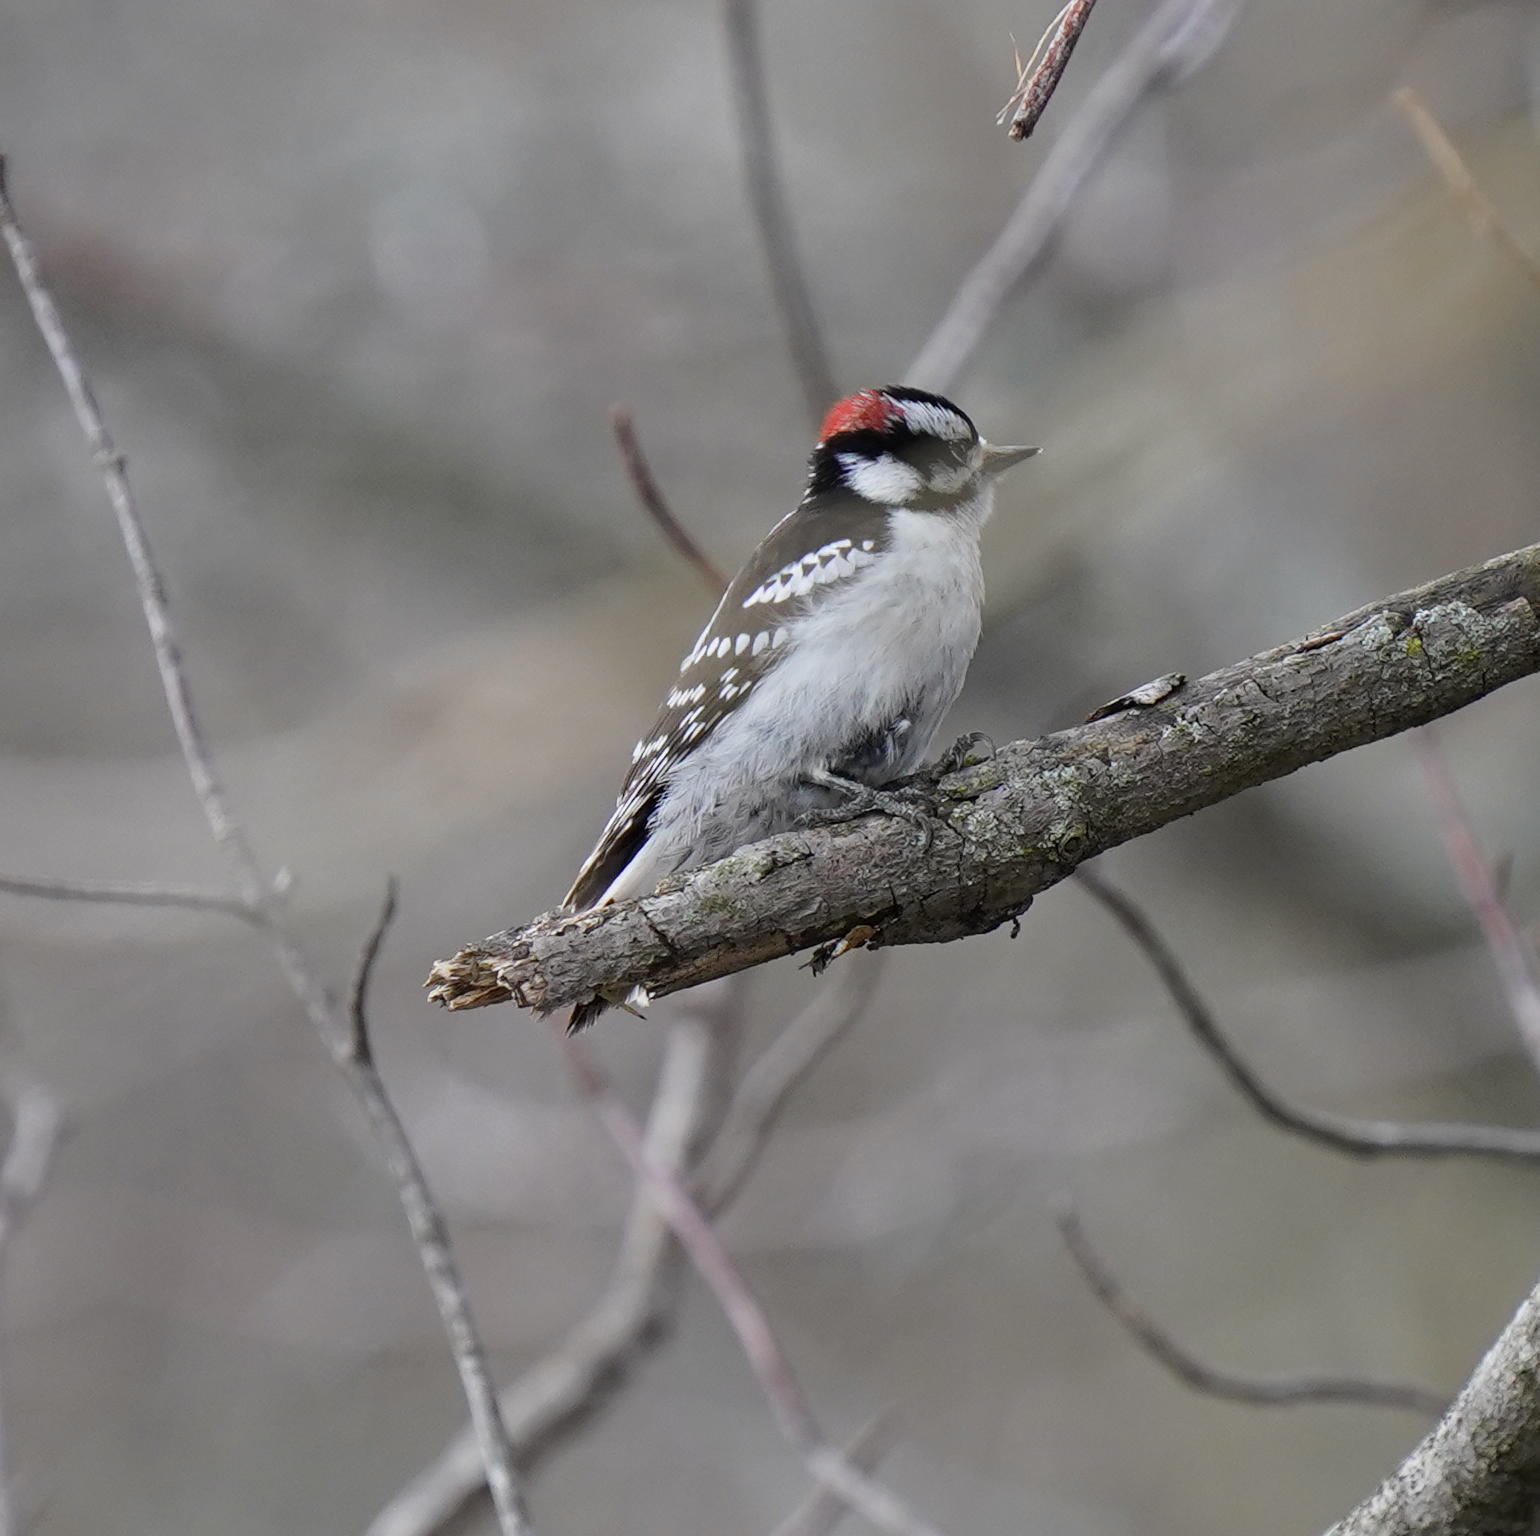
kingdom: Animalia
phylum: Chordata
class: Aves
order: Piciformes
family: Picidae
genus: Dryobates
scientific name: Dryobates pubescens
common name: Downy woodpecker
